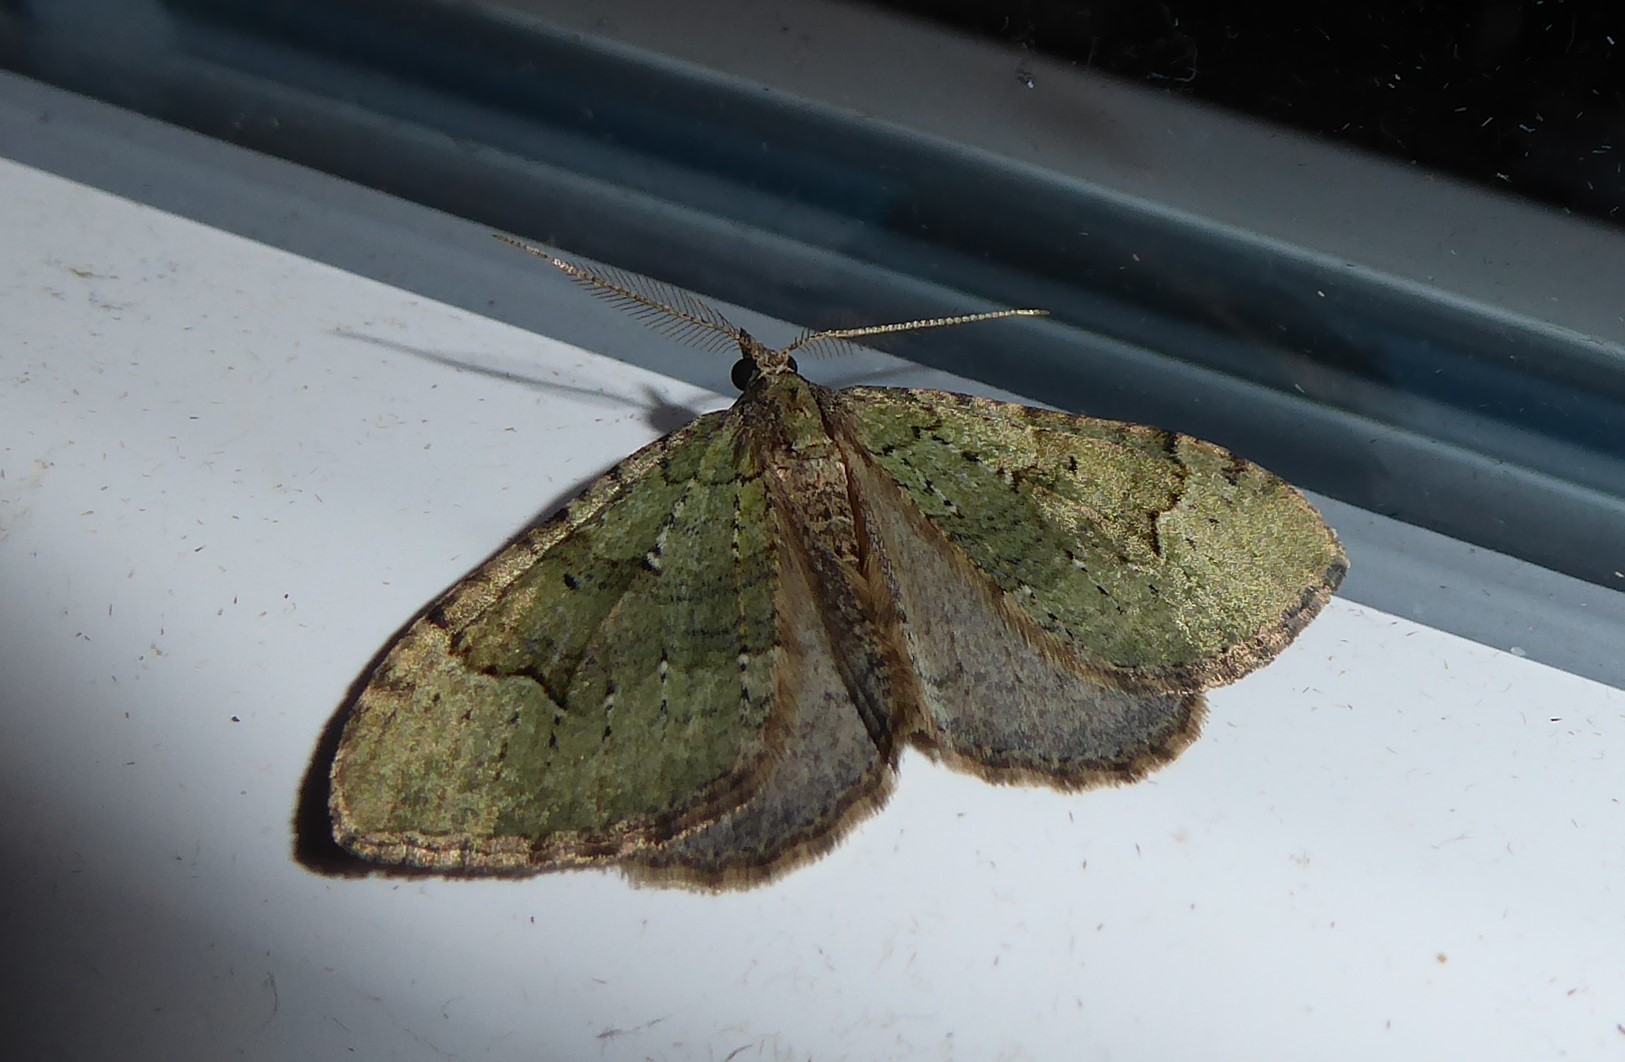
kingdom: Animalia
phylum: Arthropoda
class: Insecta
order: Lepidoptera
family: Geometridae
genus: Epyaxa
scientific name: Epyaxa rosearia
